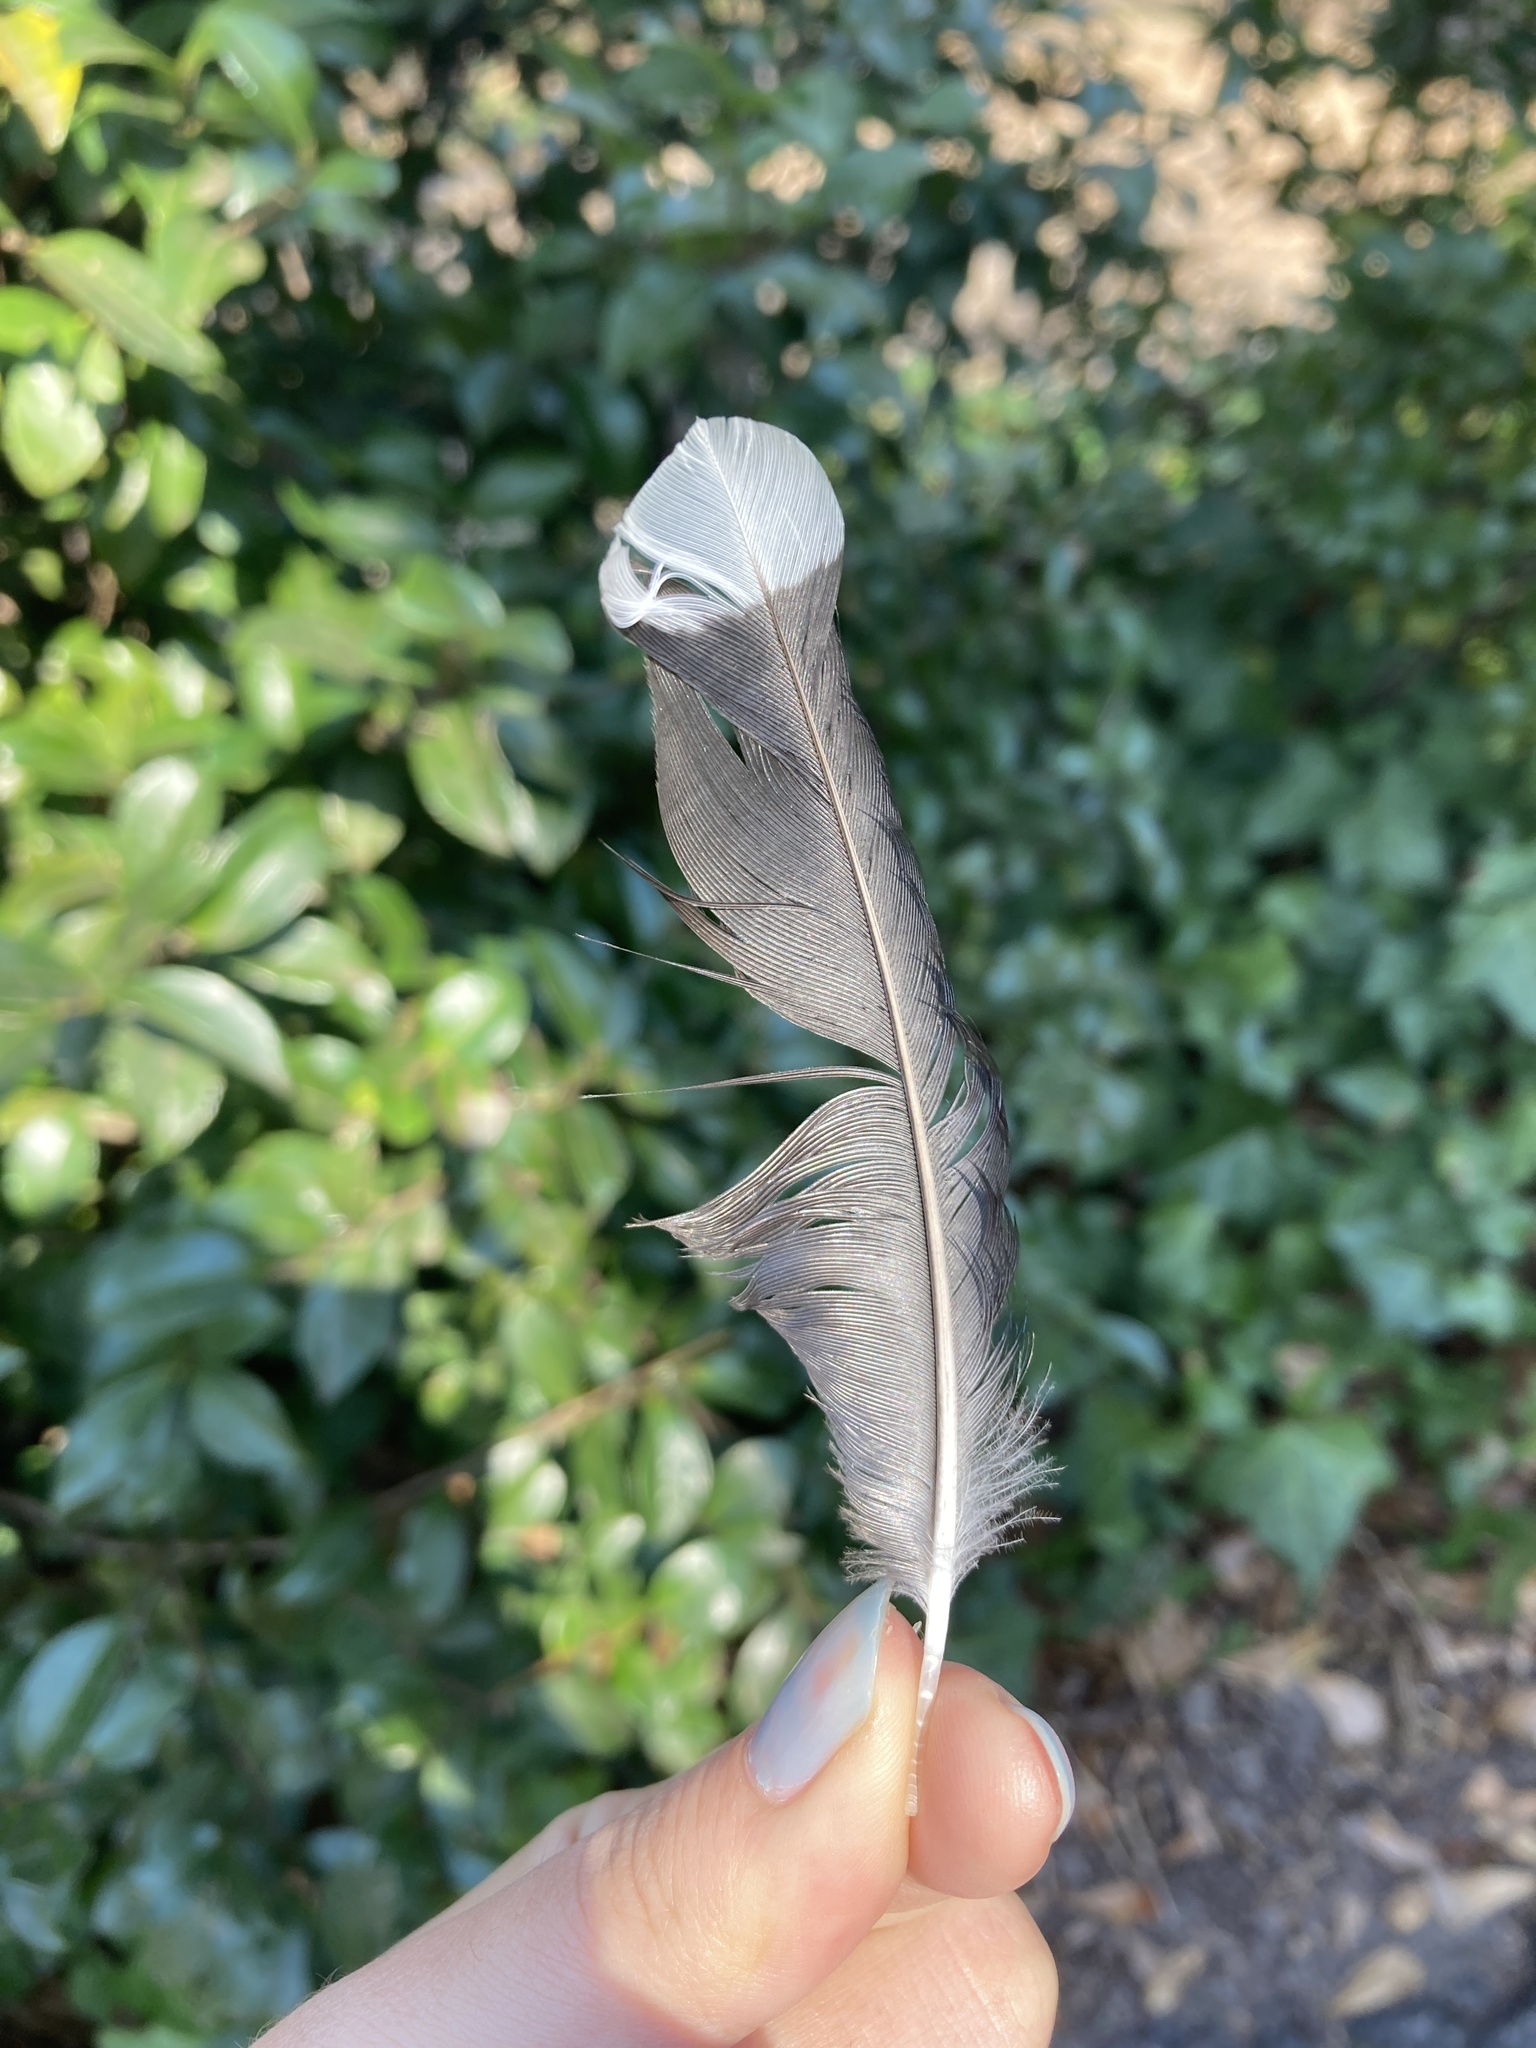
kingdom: Animalia
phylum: Chordata
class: Aves
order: Passeriformes
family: Corvidae
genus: Cyanocitta
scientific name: Cyanocitta cristata
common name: Blue jay
